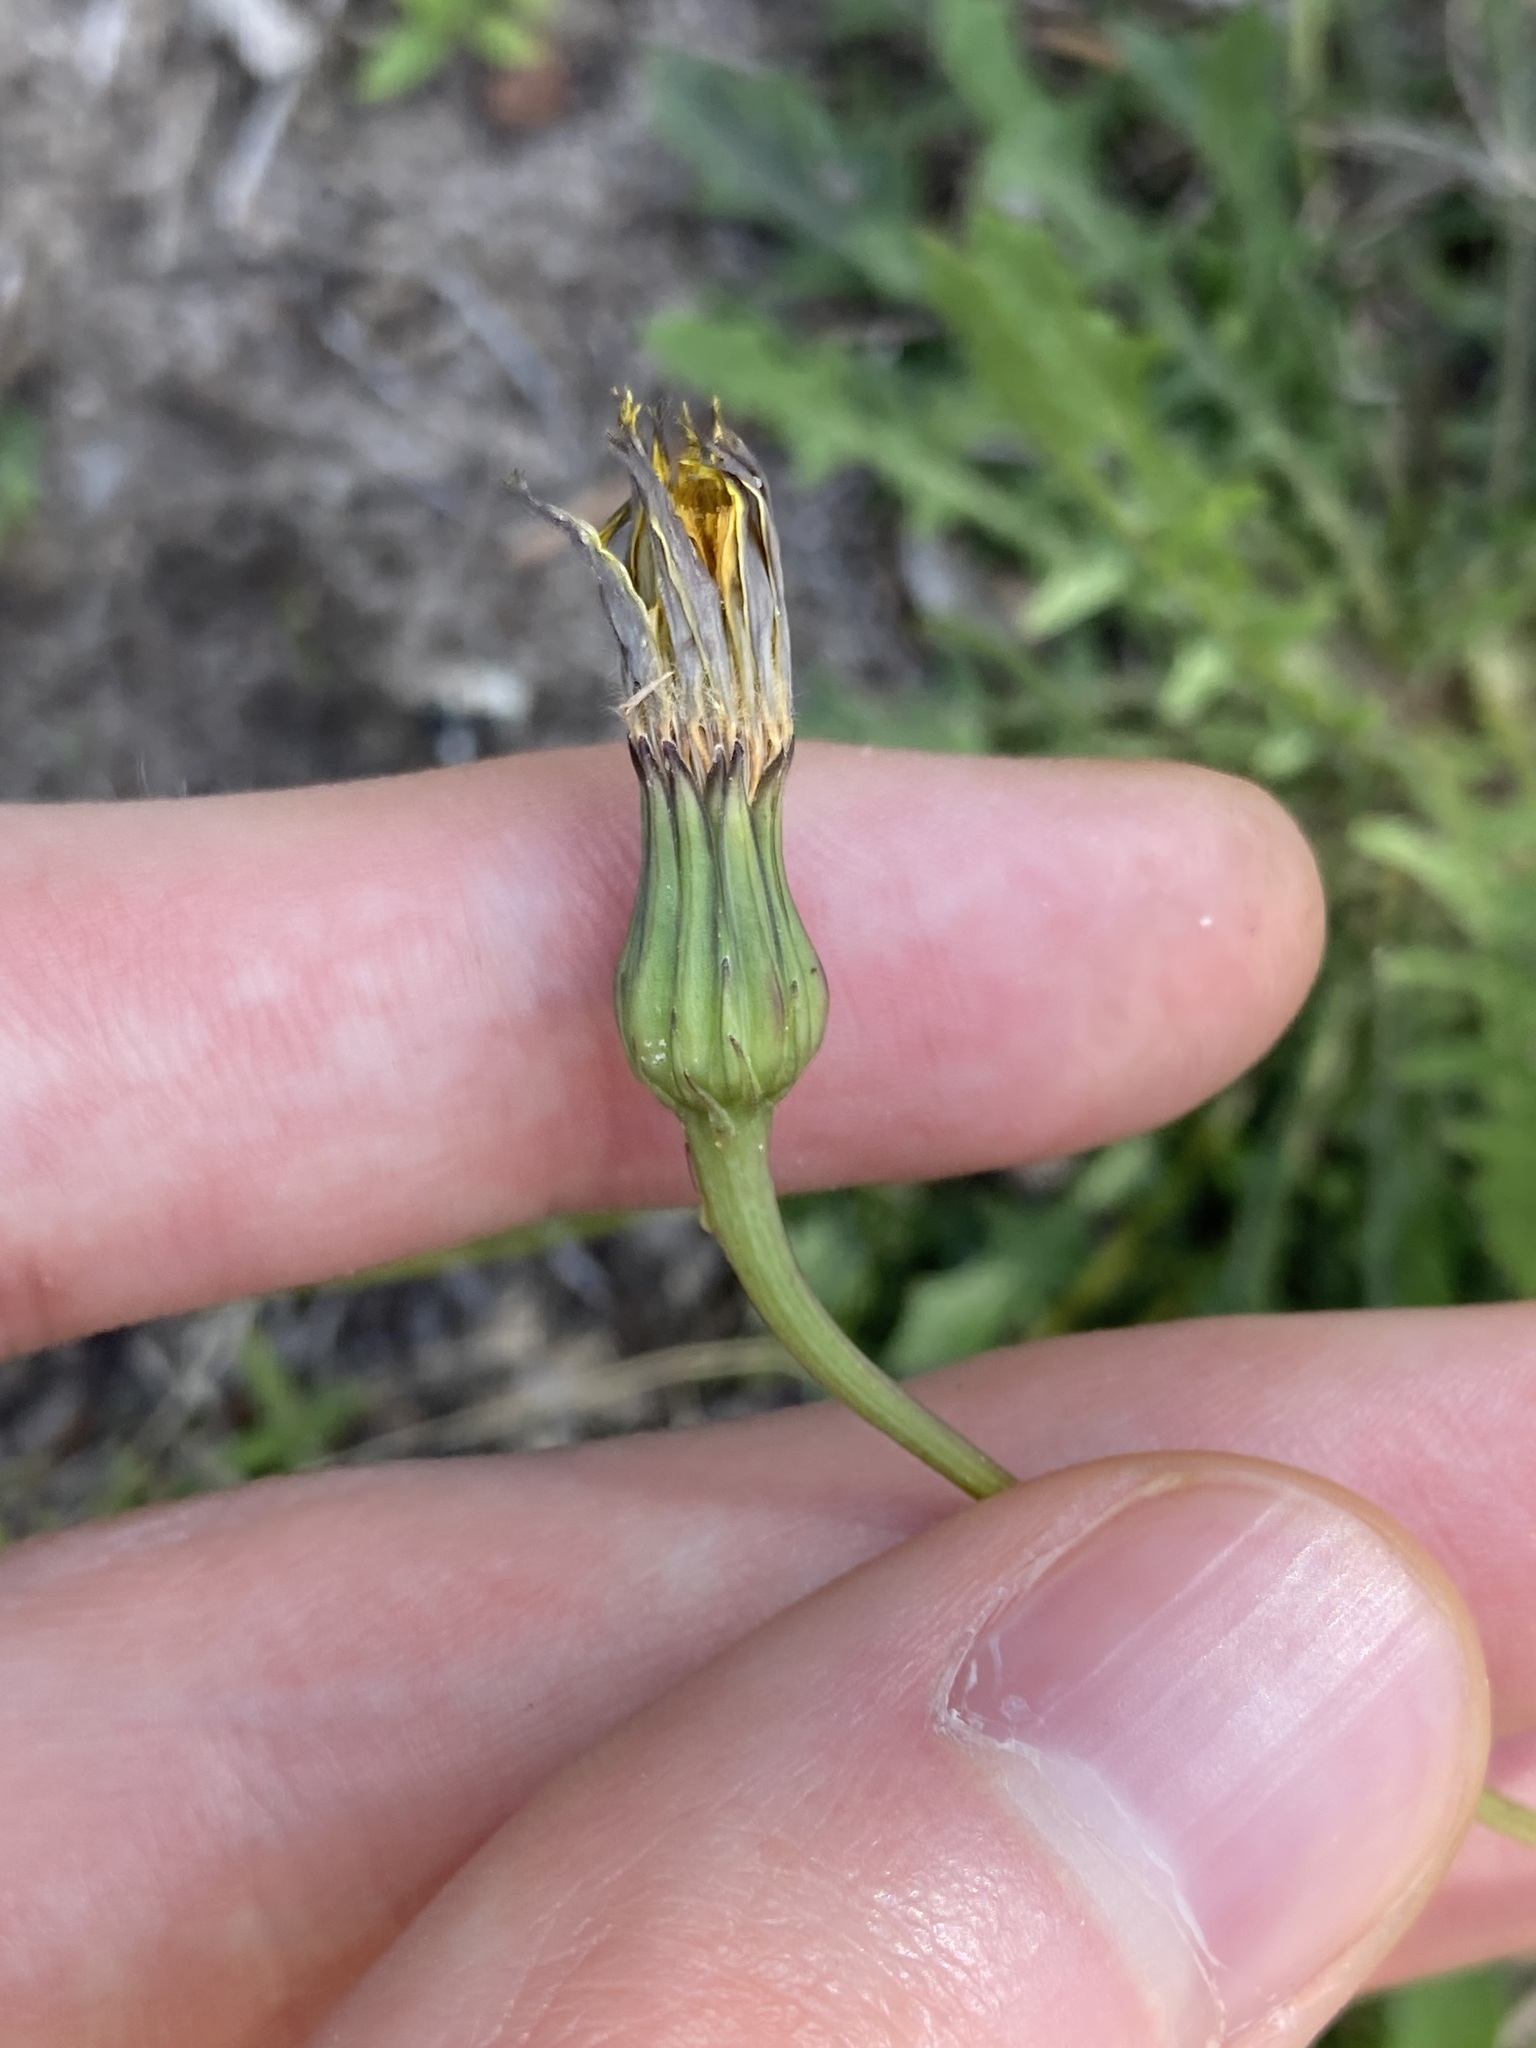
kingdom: Plantae
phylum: Tracheophyta
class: Magnoliopsida
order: Asterales
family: Asteraceae
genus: Hypochaeris
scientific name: Hypochaeris radicata
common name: Flatweed
